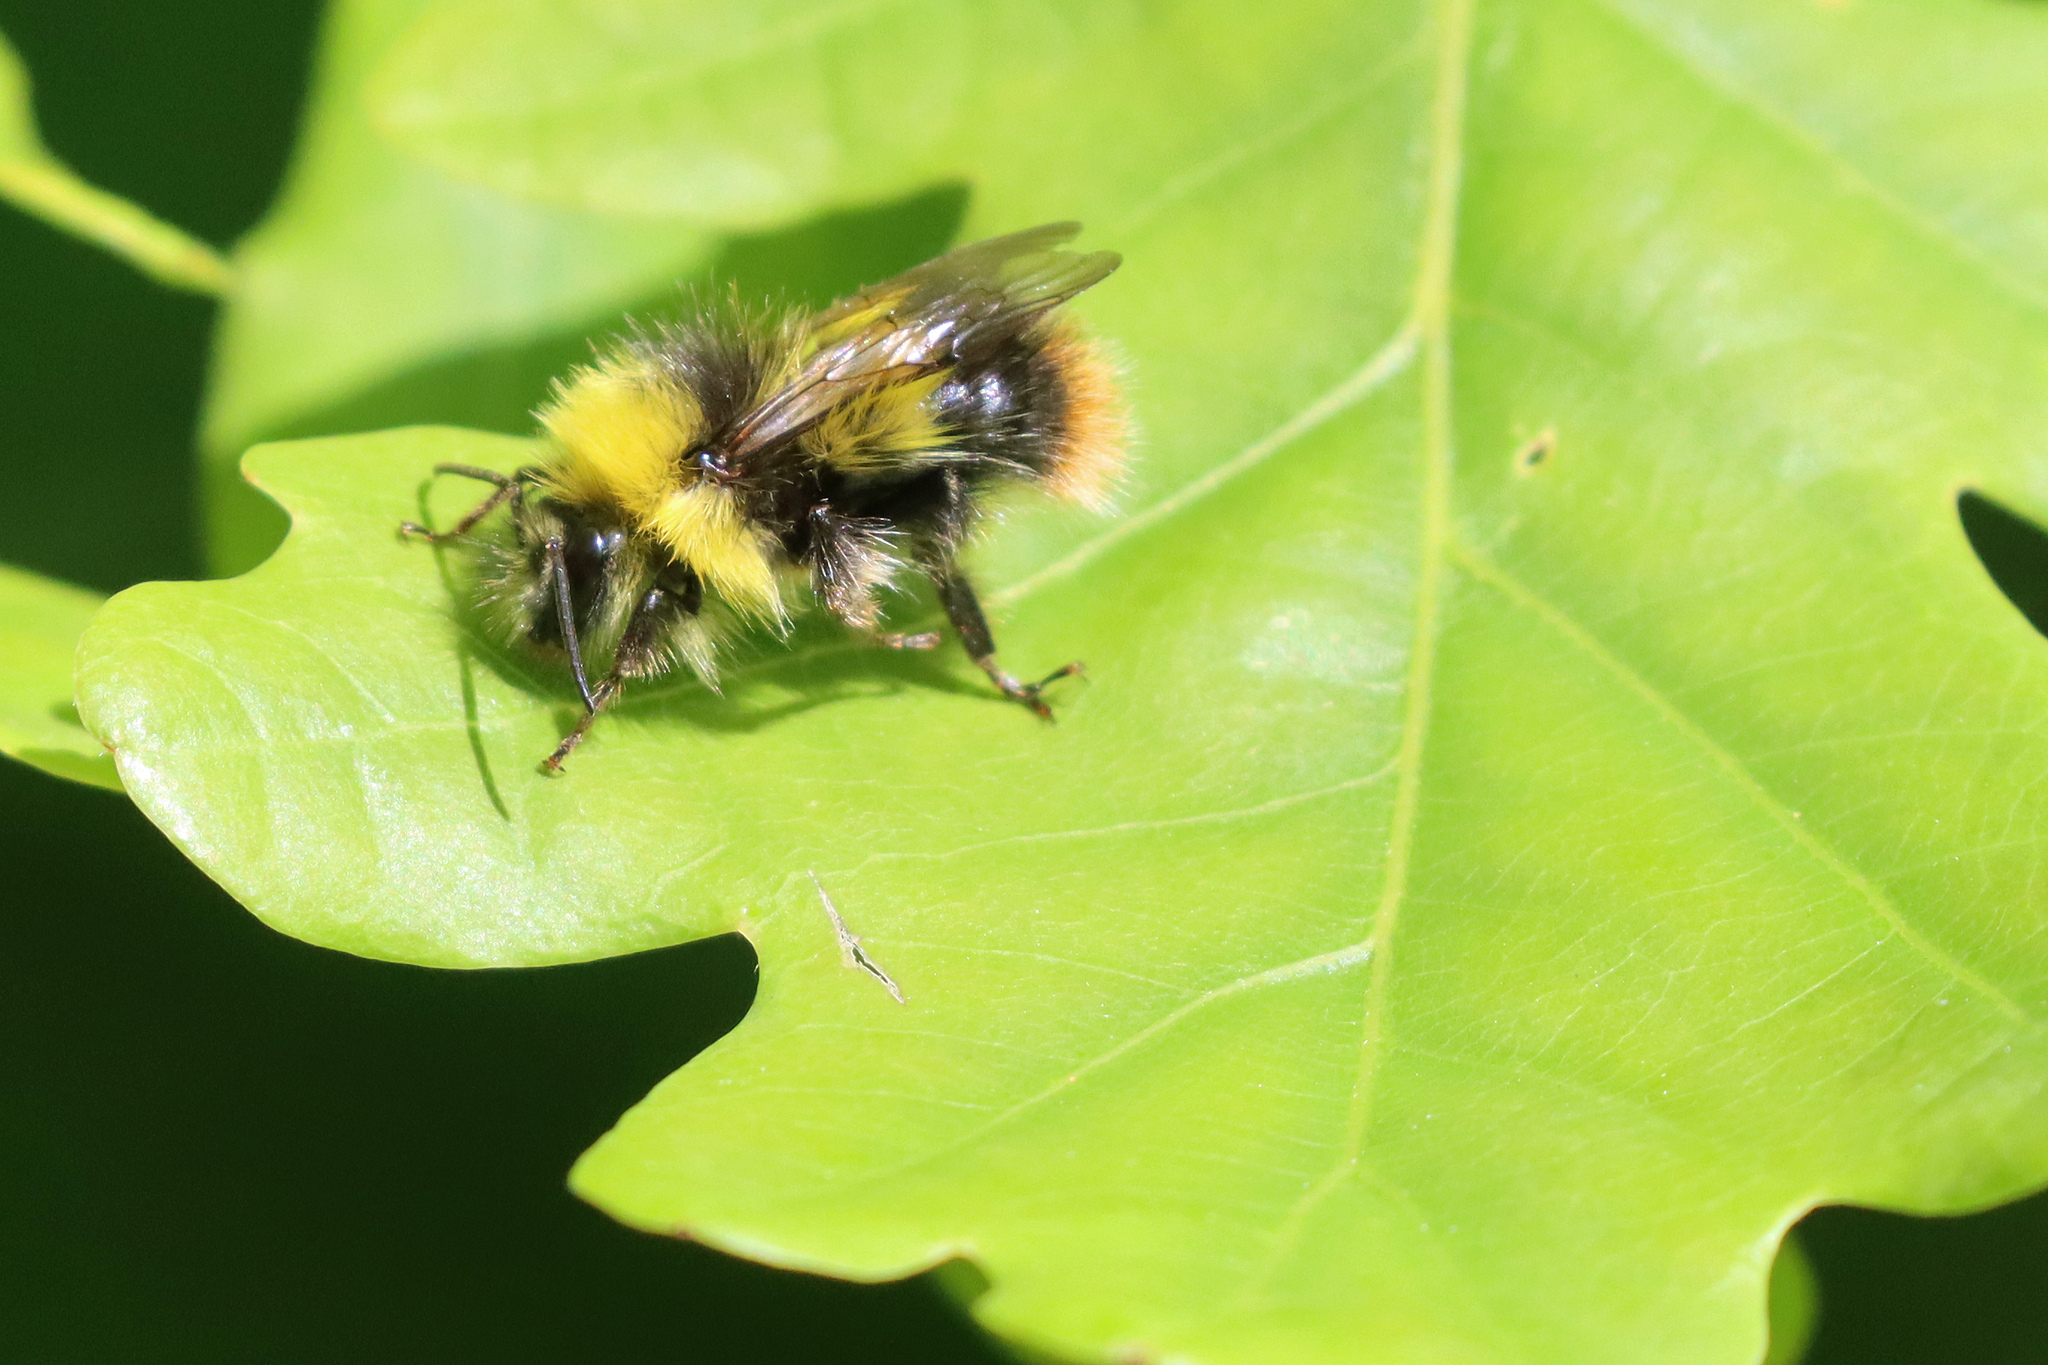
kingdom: Animalia
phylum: Arthropoda
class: Insecta
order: Hymenoptera
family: Apidae
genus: Bombus
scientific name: Bombus pratorum
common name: Early humble-bee
